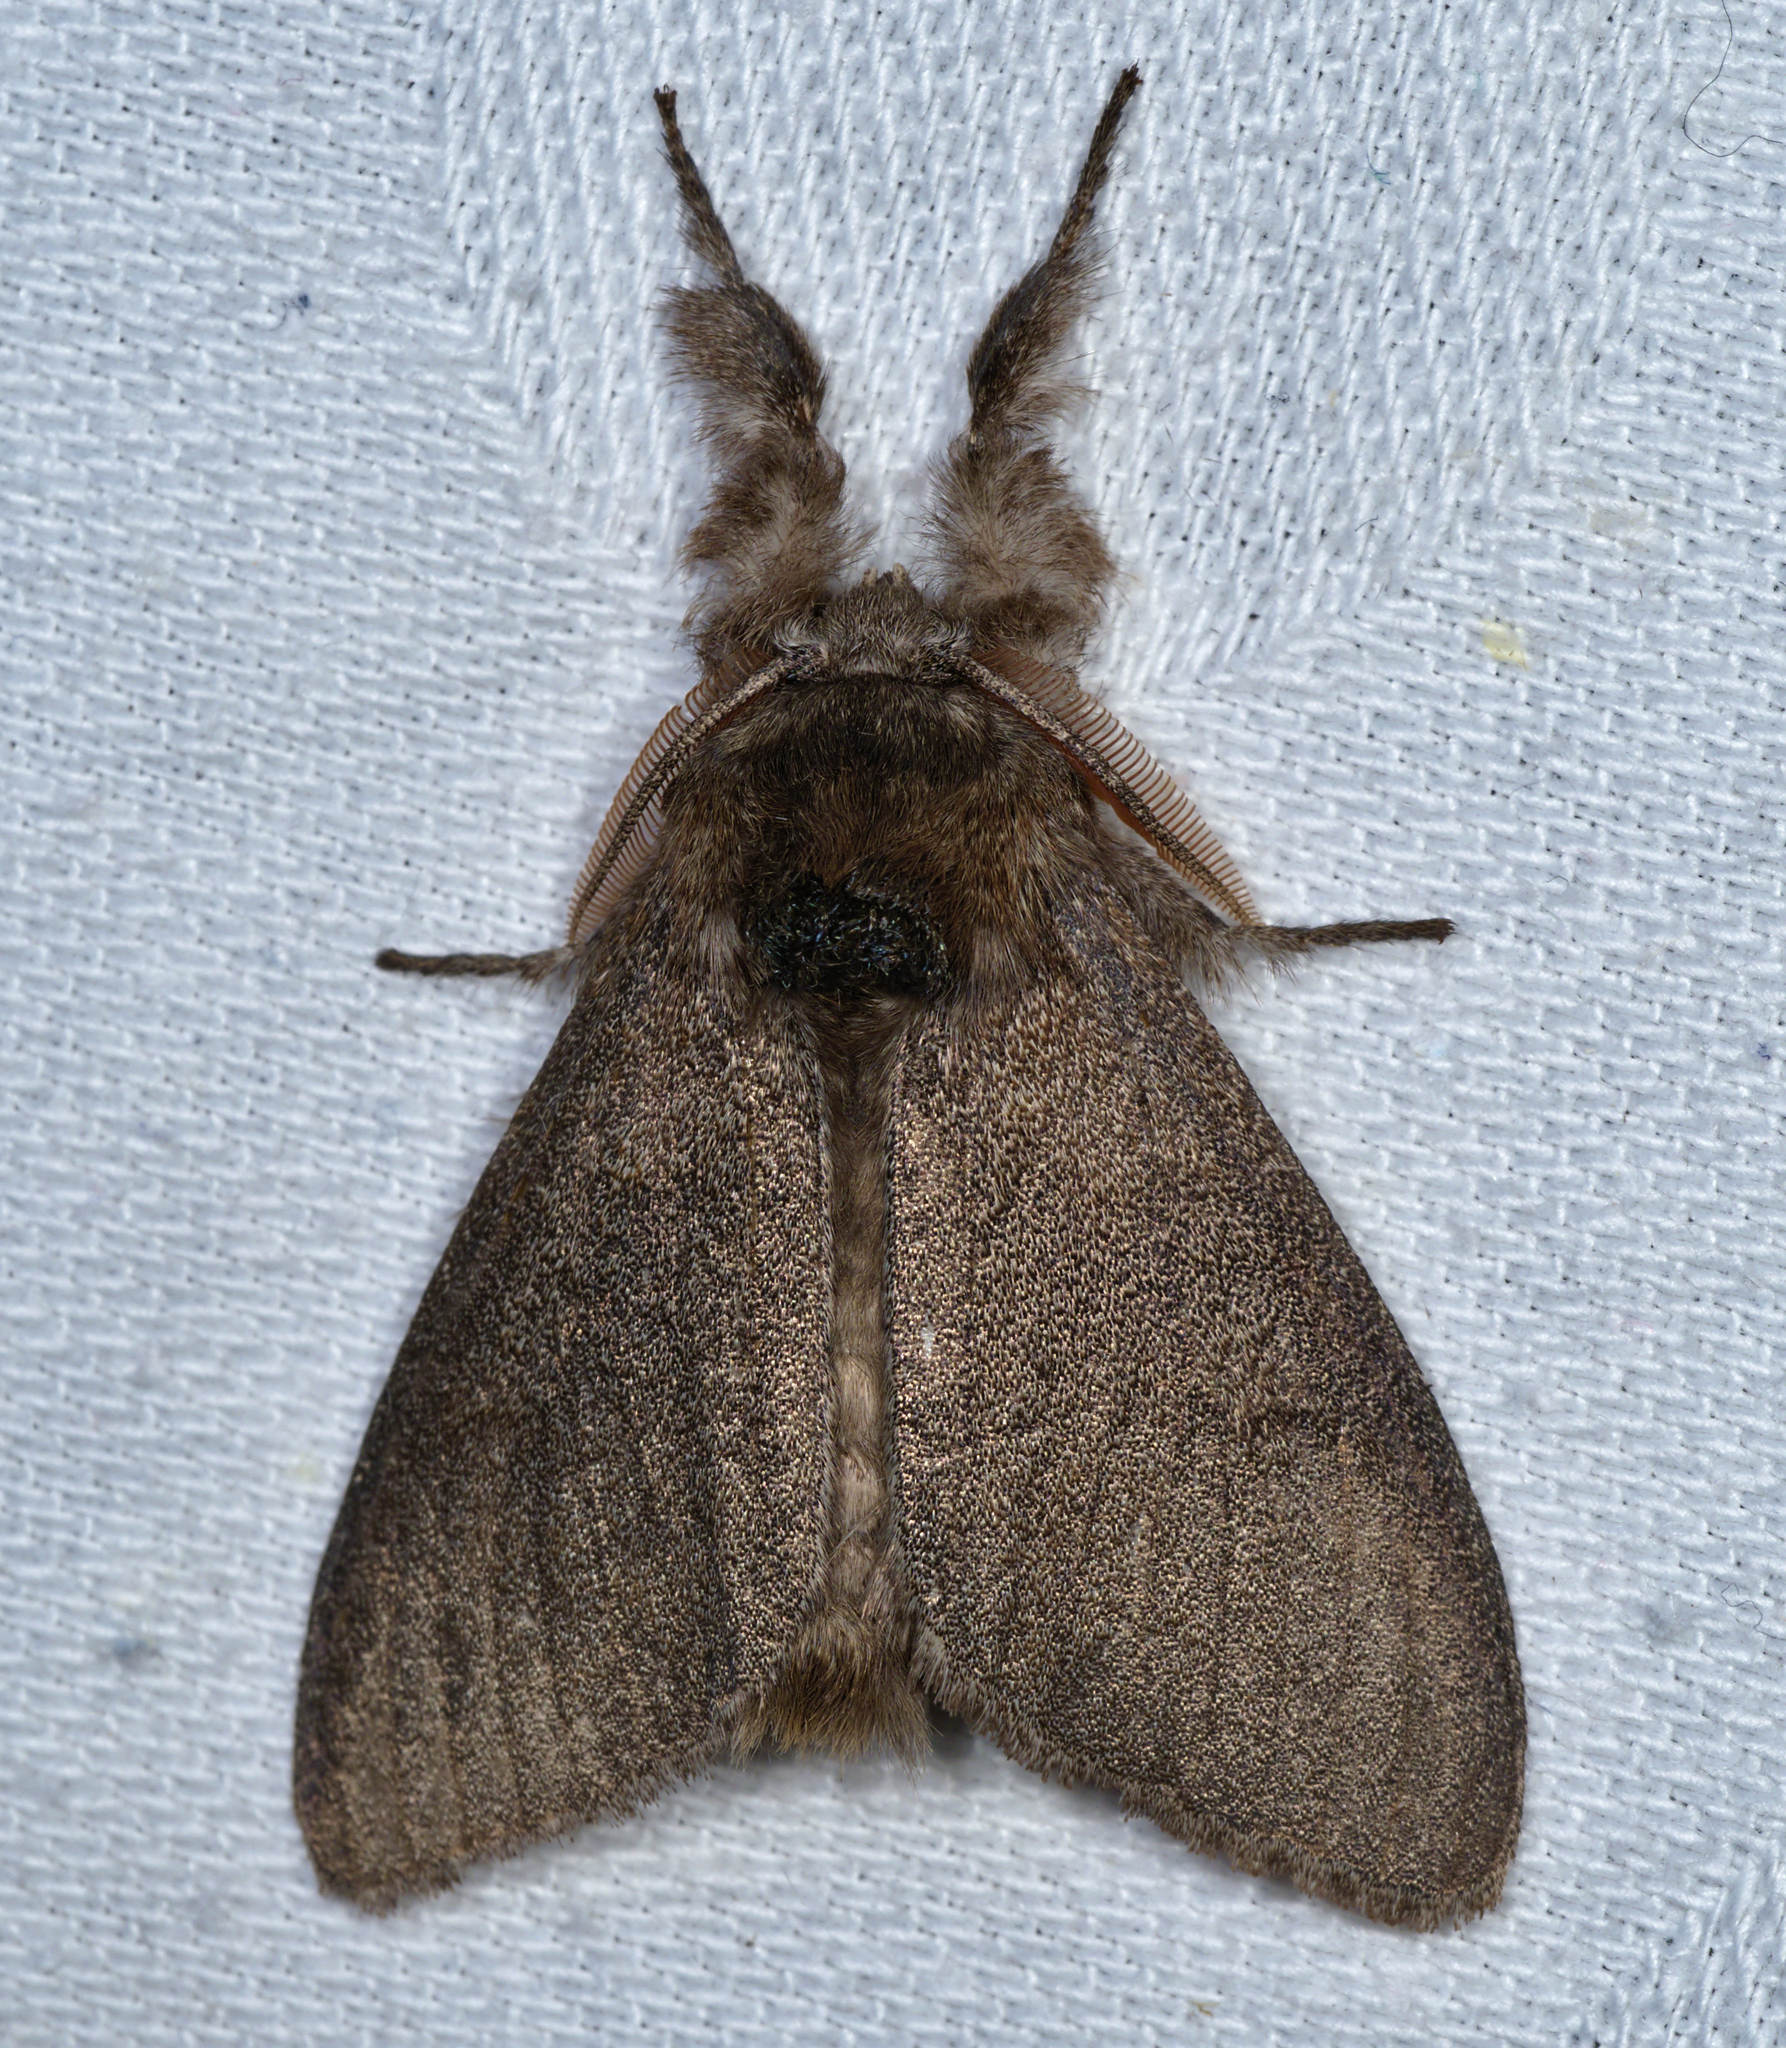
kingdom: Animalia
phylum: Arthropoda
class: Insecta
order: Lepidoptera
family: Erebidae
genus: Calliteara
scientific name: Calliteara pudibunda
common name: Pale tussock
